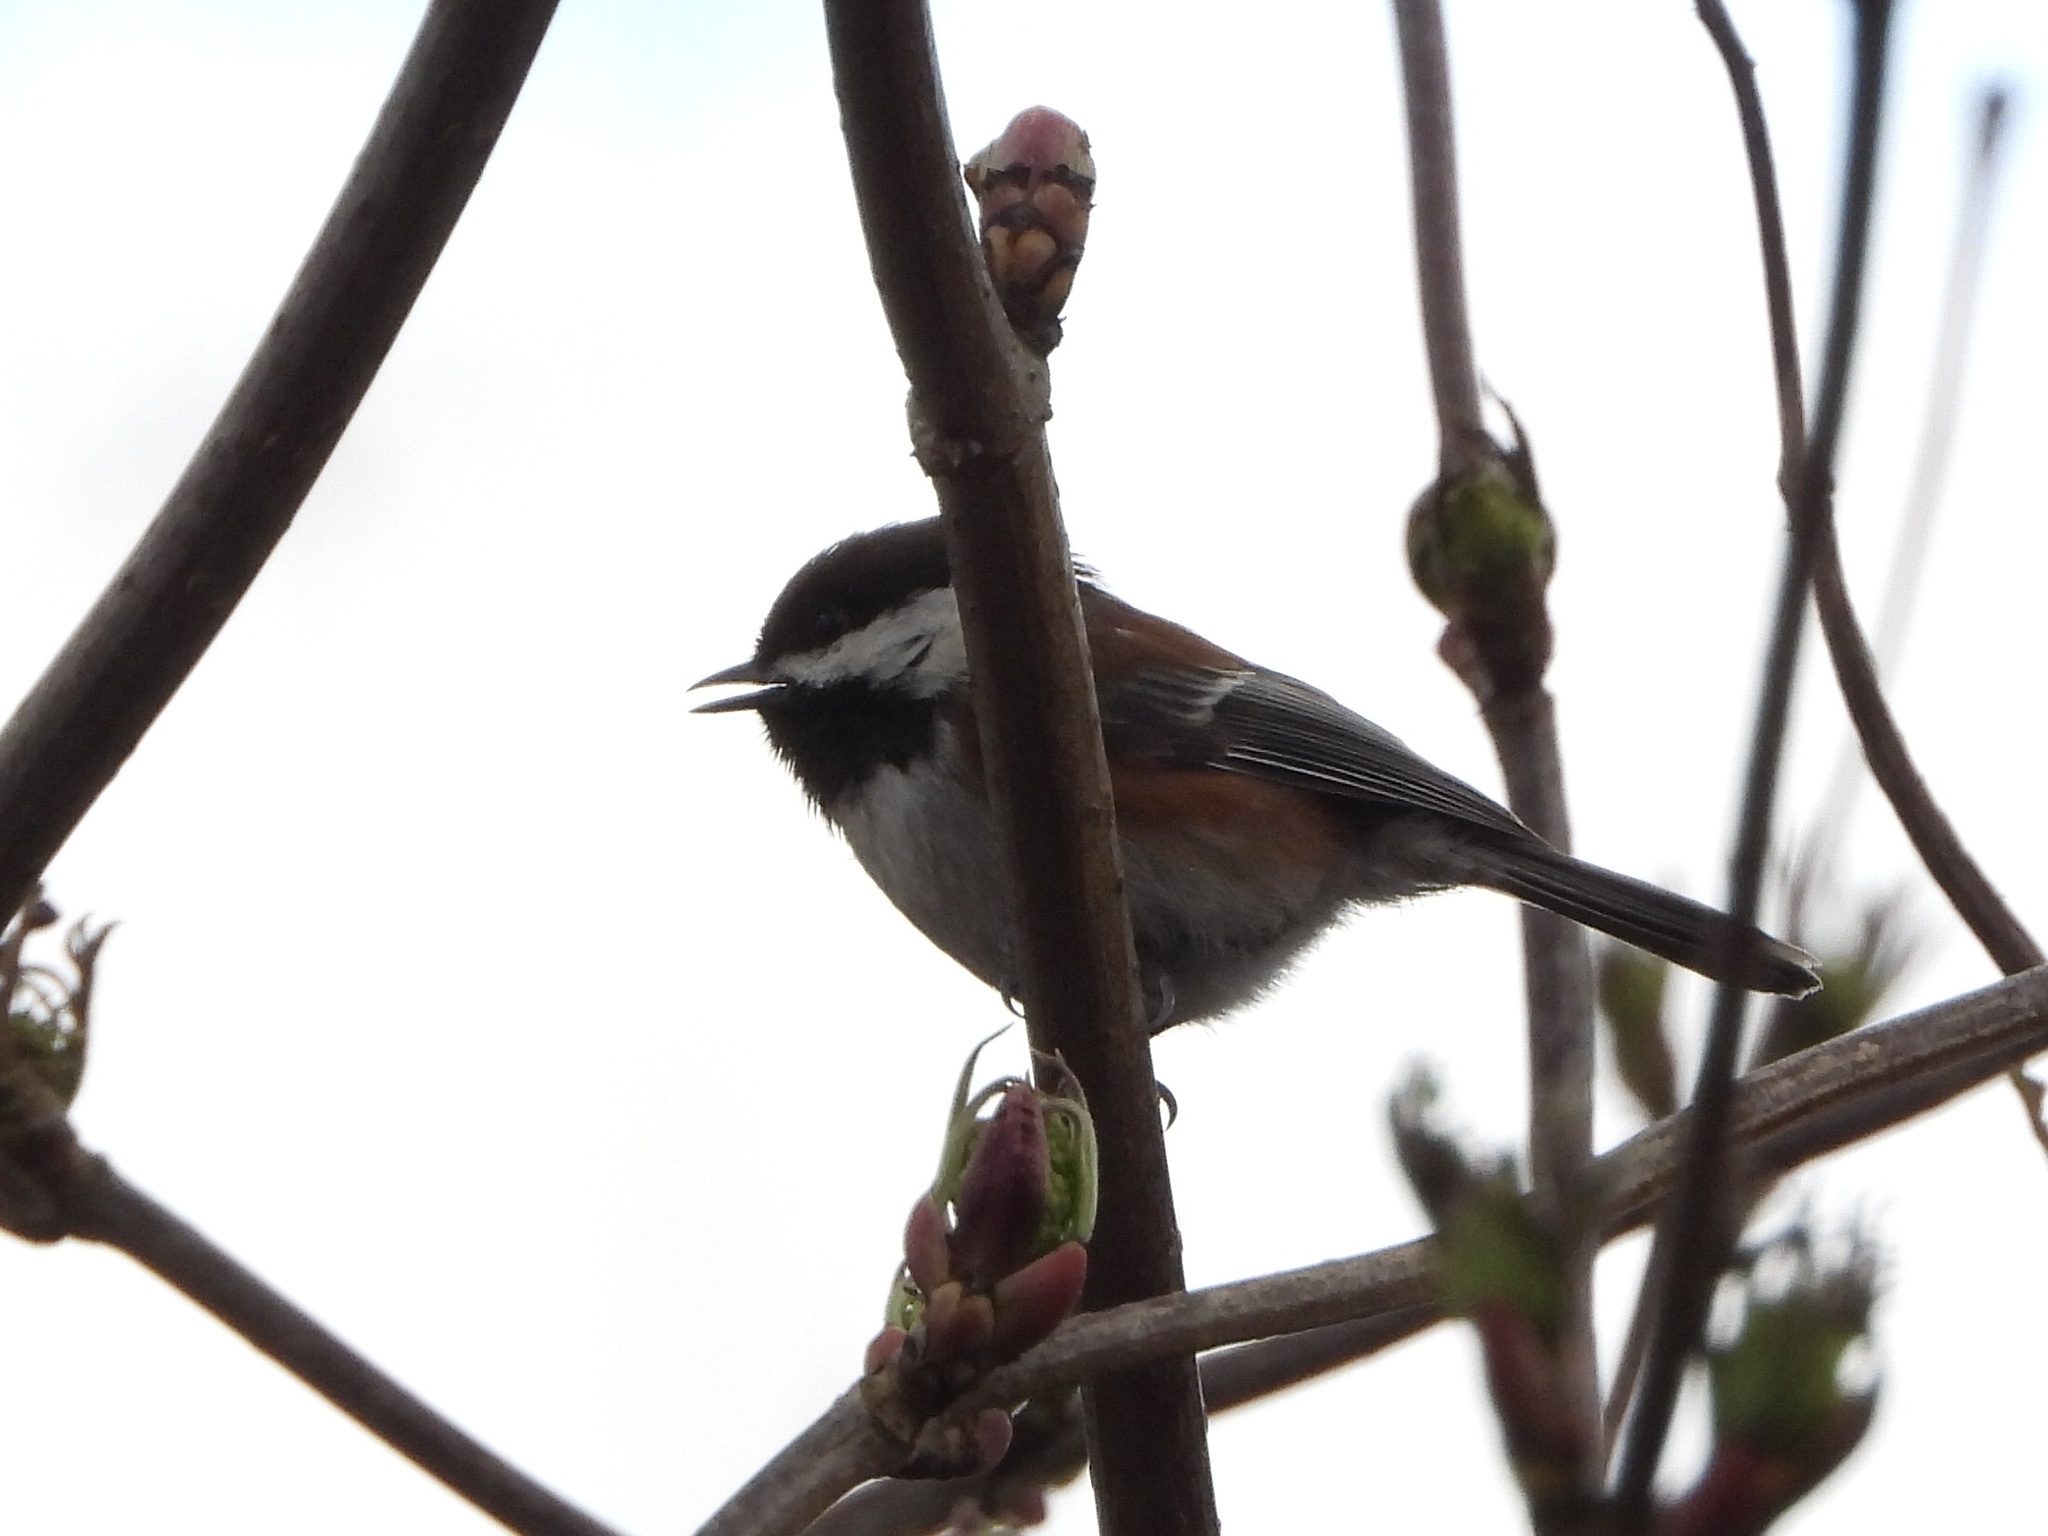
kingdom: Animalia
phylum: Chordata
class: Aves
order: Passeriformes
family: Paridae
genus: Poecile
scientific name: Poecile rufescens
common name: Chestnut-backed chickadee
